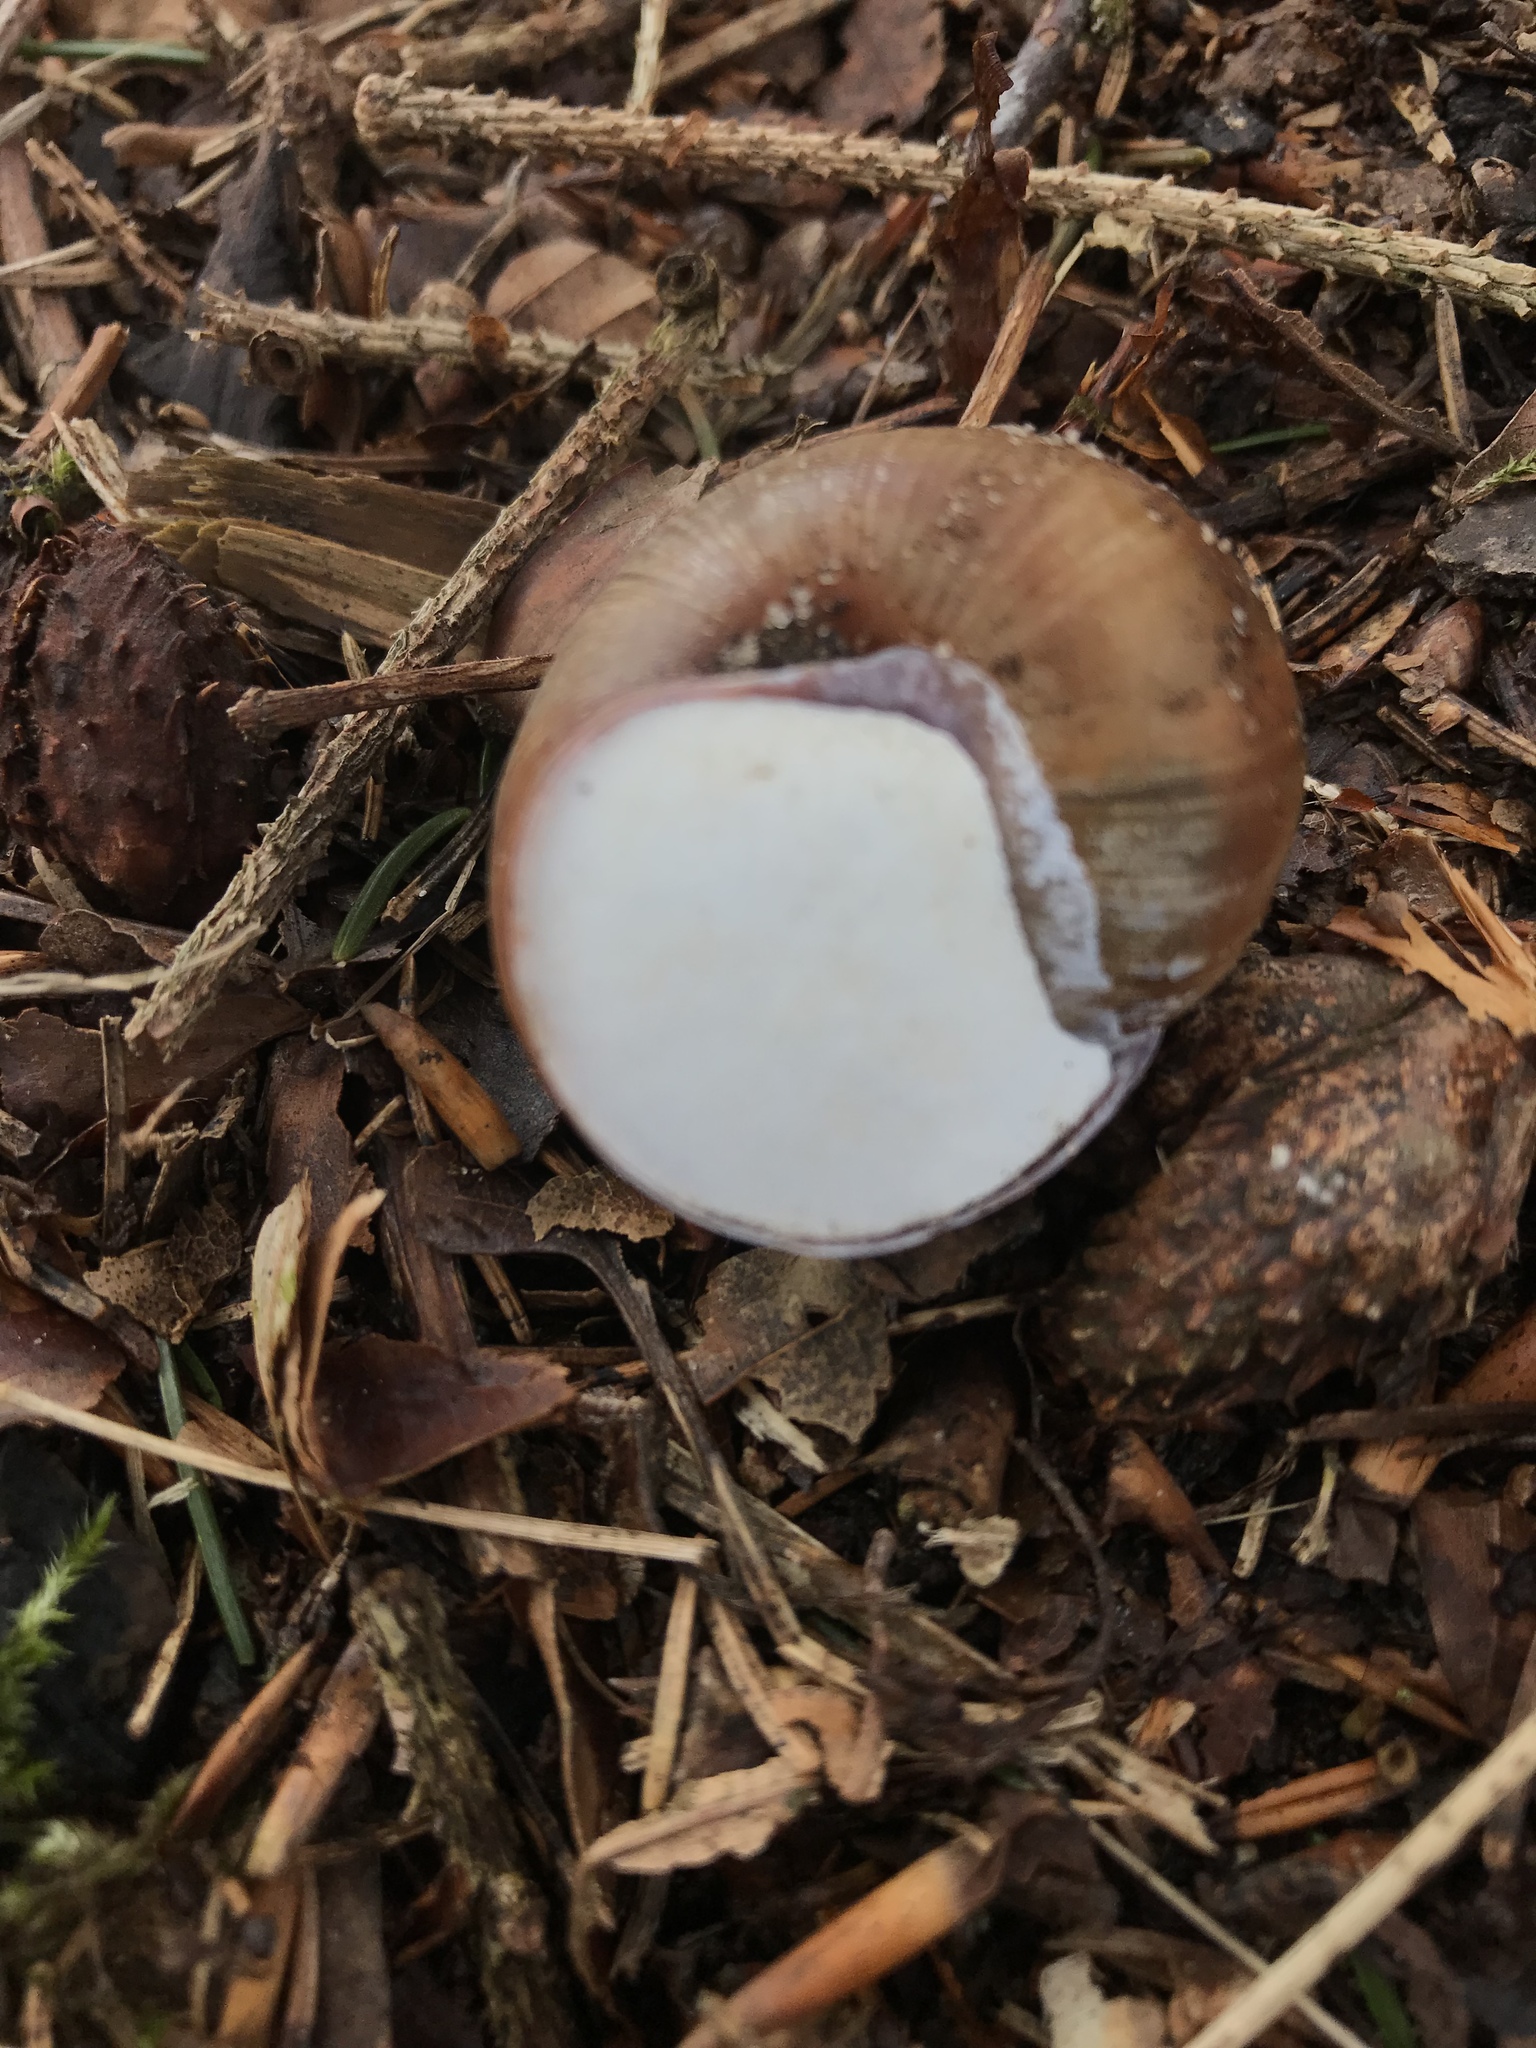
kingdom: Animalia
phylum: Mollusca
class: Gastropoda
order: Stylommatophora
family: Helicidae
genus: Helix
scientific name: Helix pomatia
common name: Roman snail
